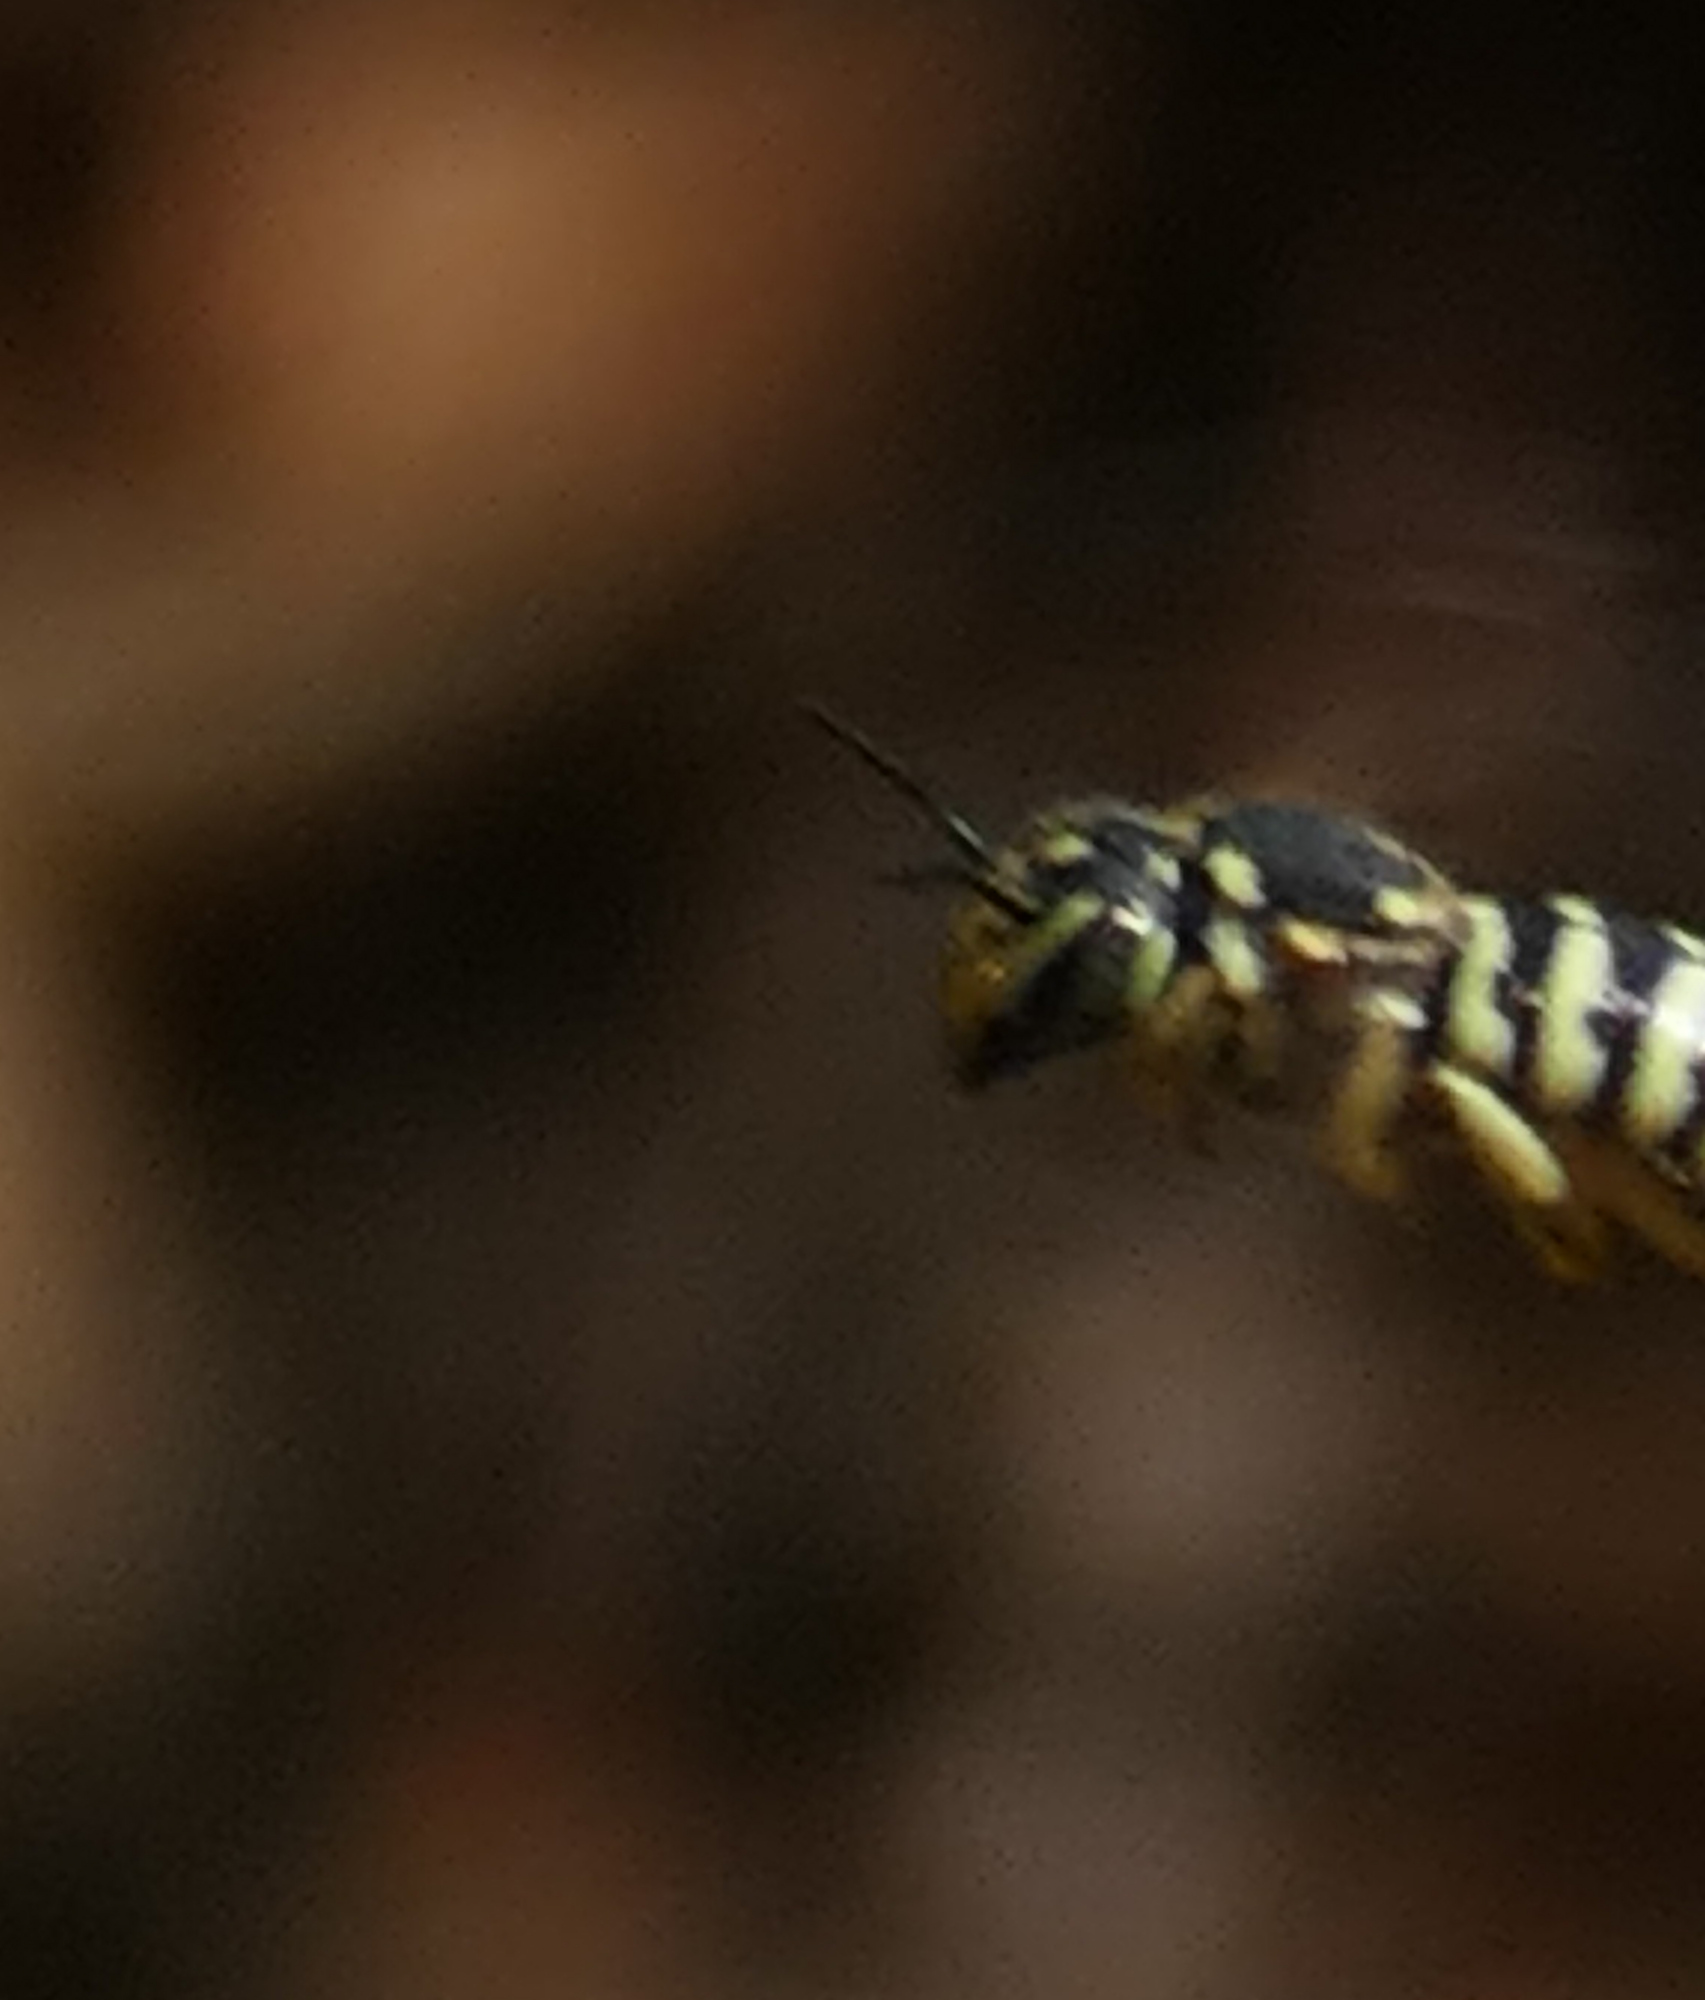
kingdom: Animalia
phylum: Arthropoda
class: Insecta
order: Hymenoptera
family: Megachilidae
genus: Dianthidium
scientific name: Dianthidium
